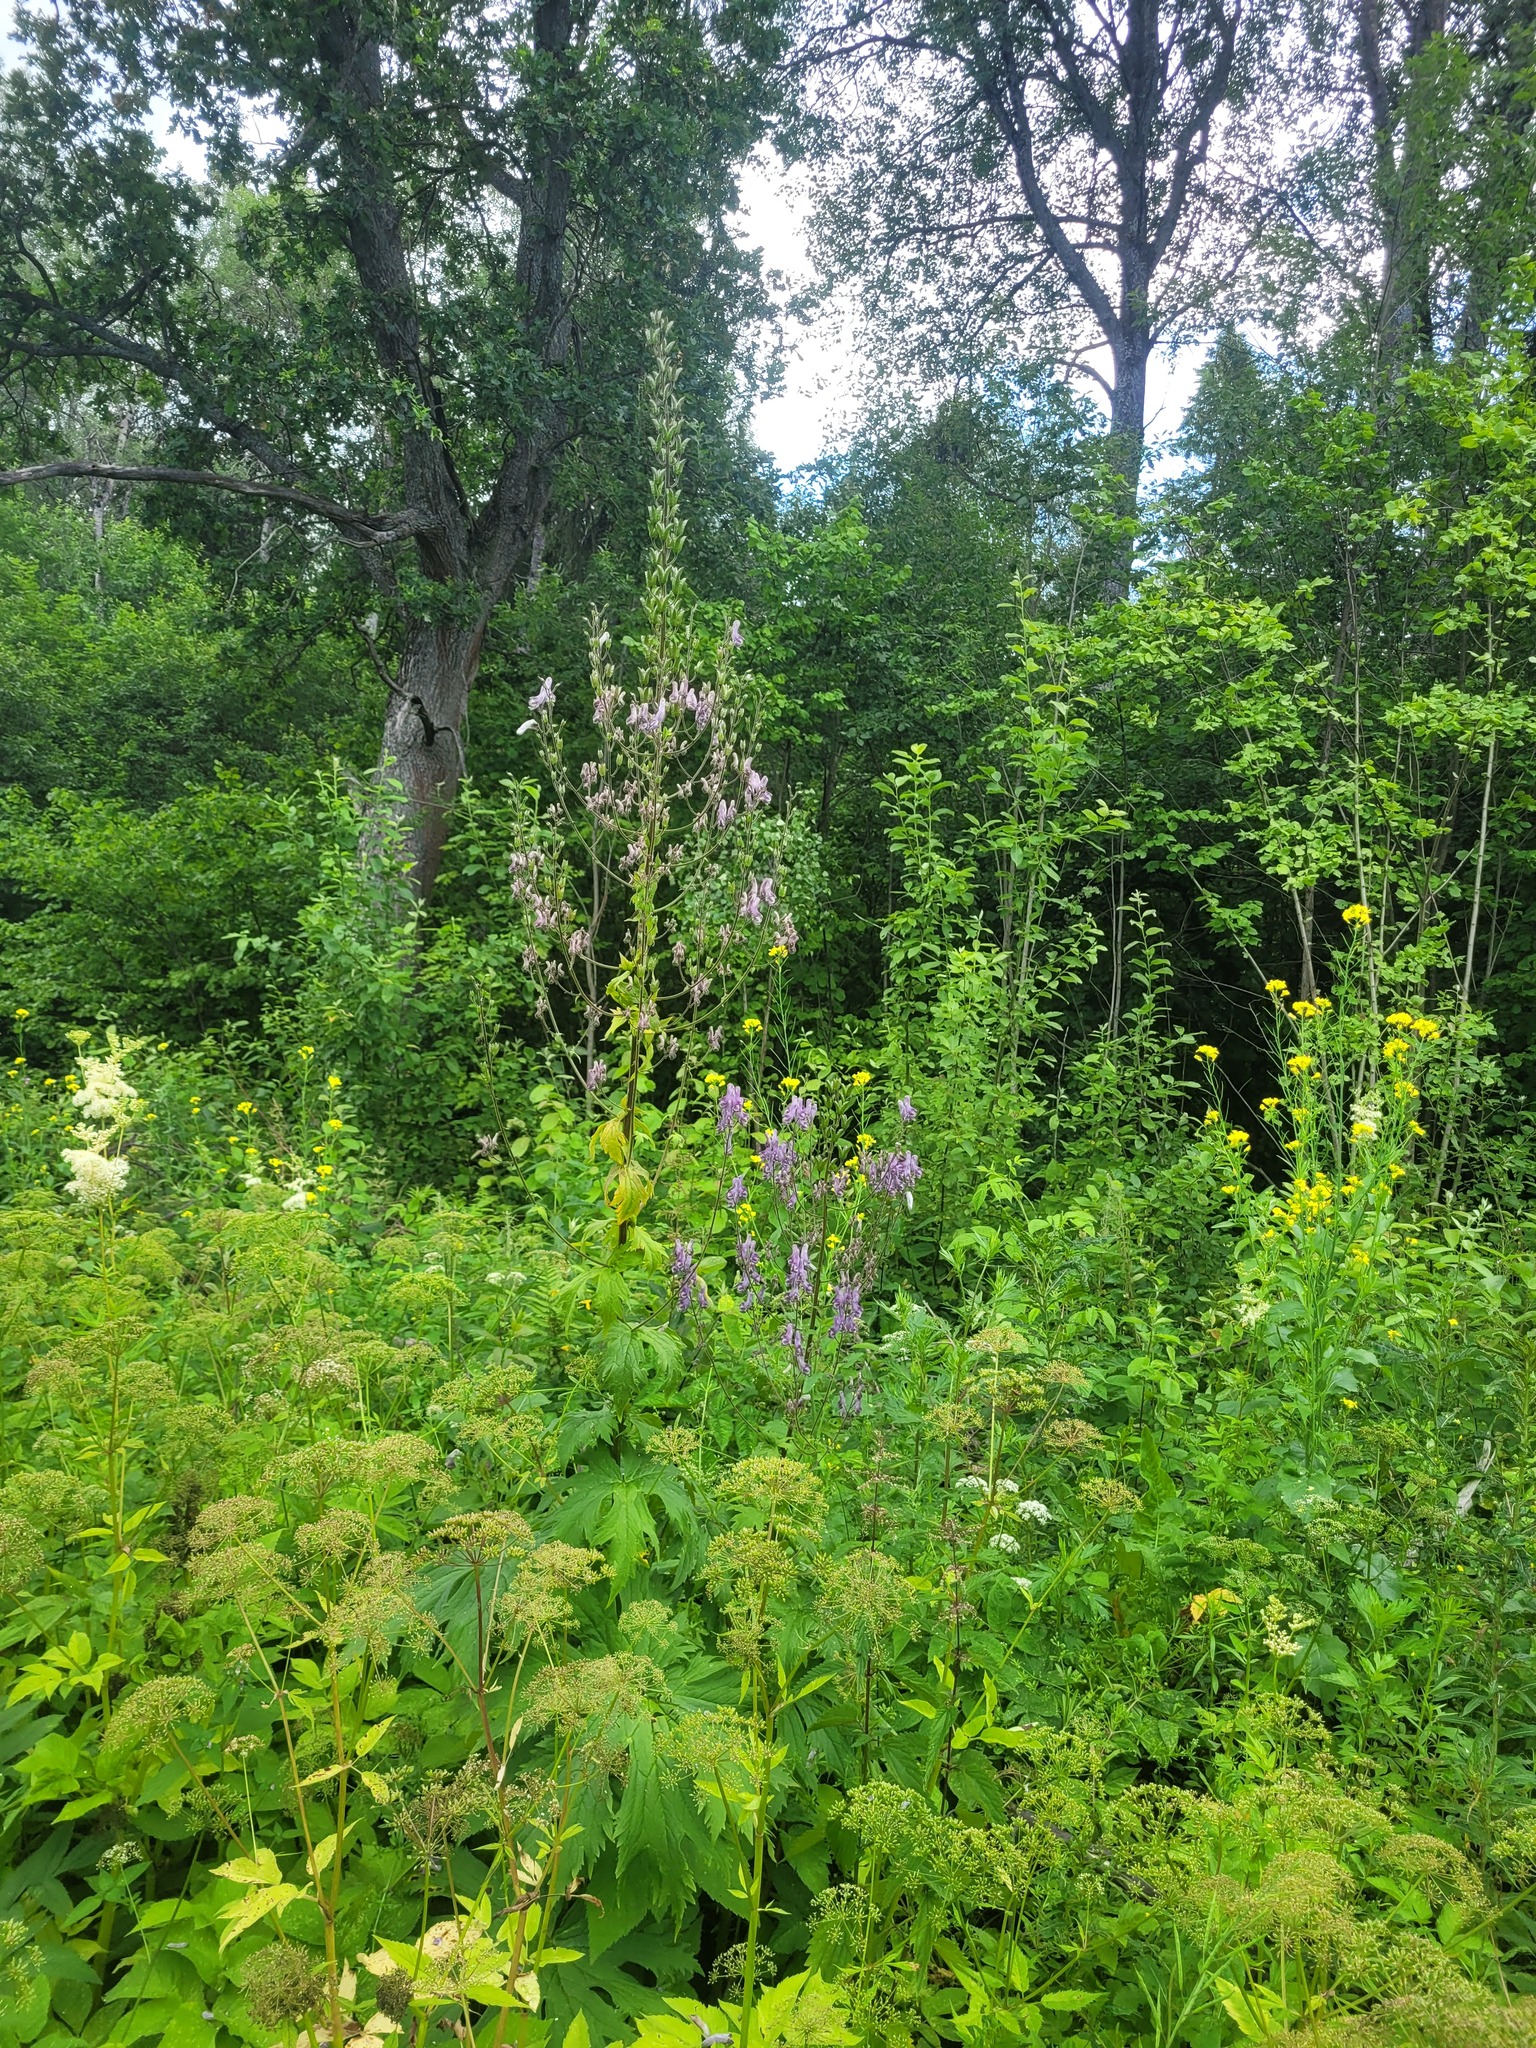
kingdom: Plantae
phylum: Tracheophyta
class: Magnoliopsida
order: Ranunculales
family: Ranunculaceae
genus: Aconitum
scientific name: Aconitum septentrionale
